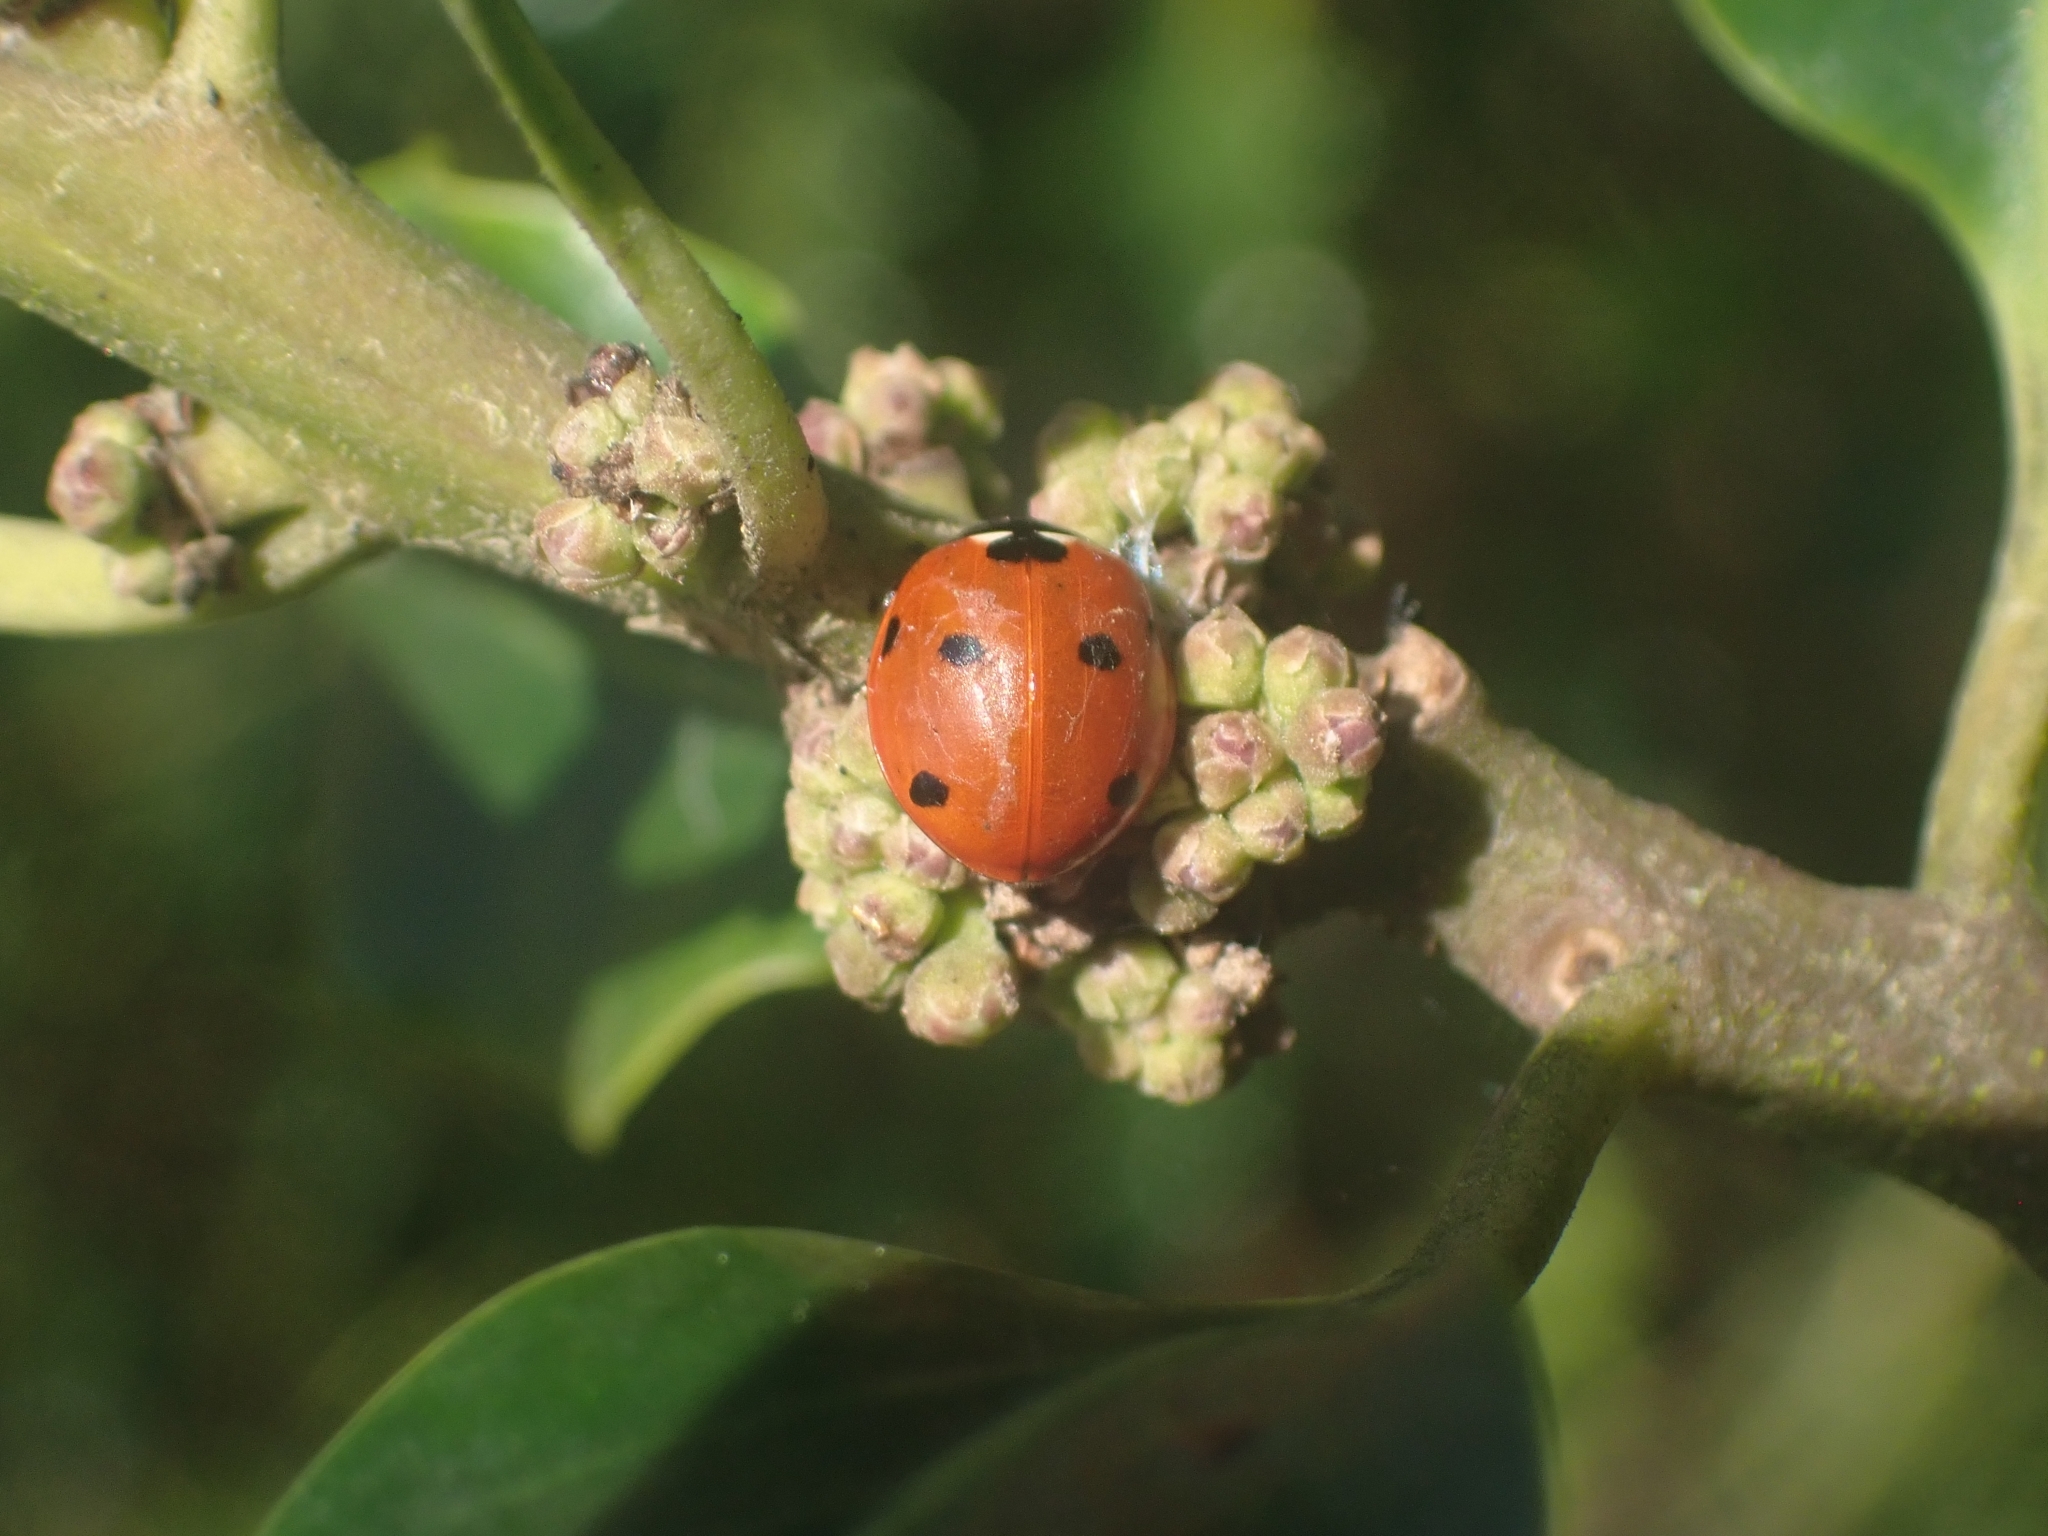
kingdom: Animalia
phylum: Arthropoda
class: Insecta
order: Coleoptera
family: Coccinellidae
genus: Coccinella
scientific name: Coccinella septempunctata
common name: Sevenspotted lady beetle
